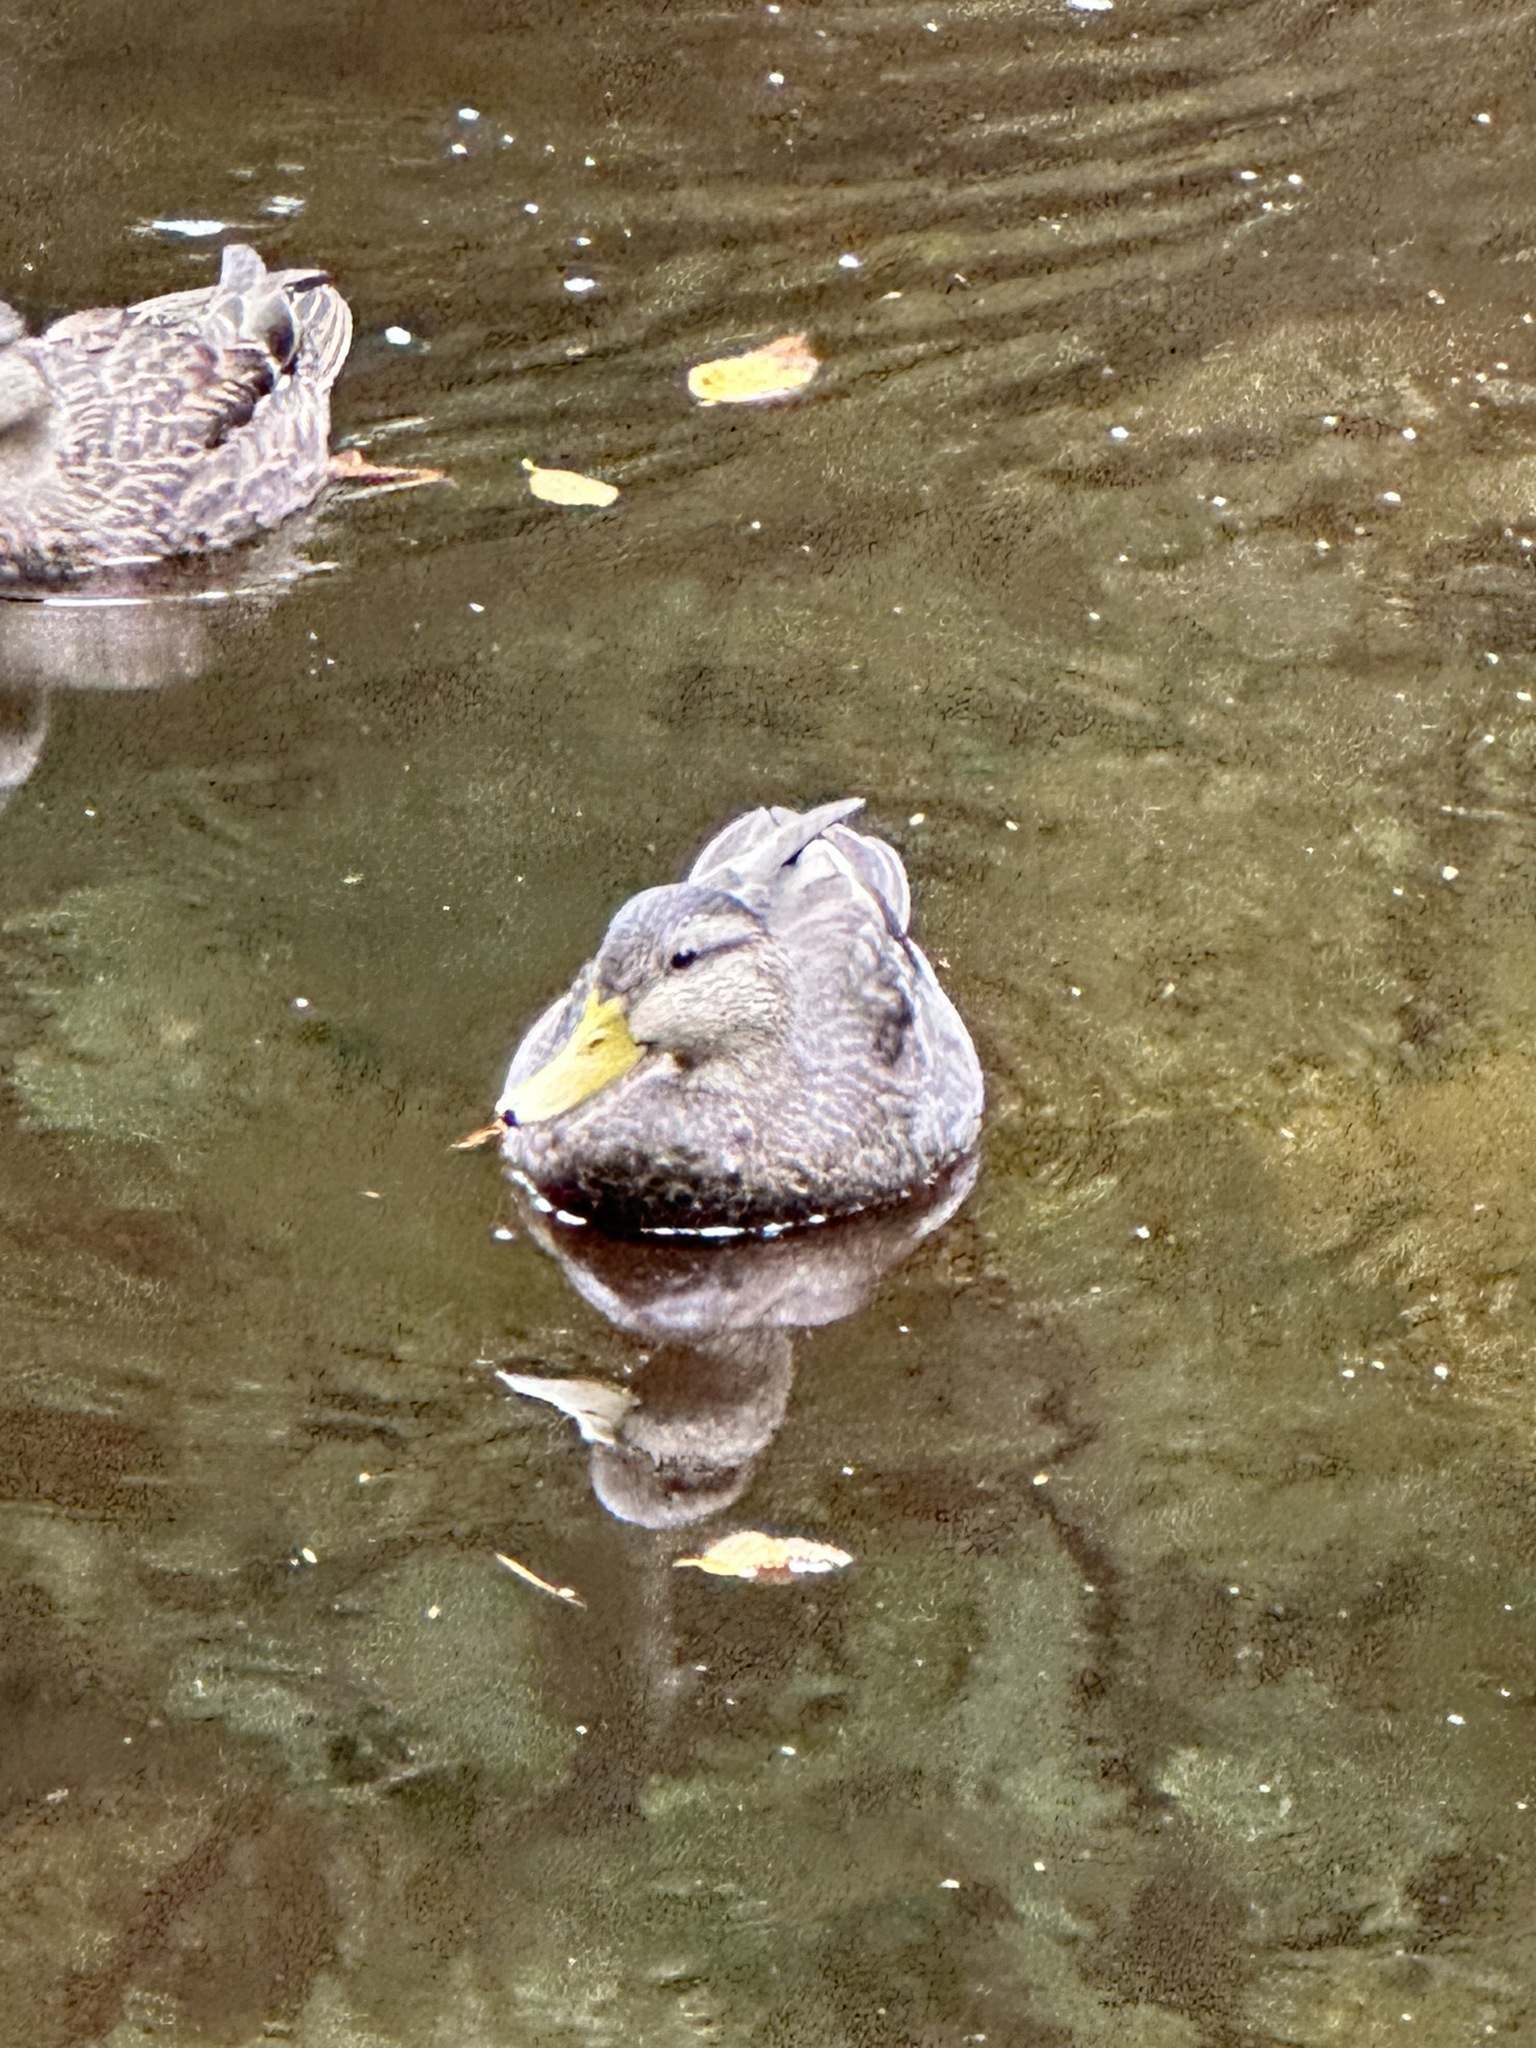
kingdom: Animalia
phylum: Chordata
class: Aves
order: Anseriformes
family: Anatidae
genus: Anas
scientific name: Anas rubripes
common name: American black duck
